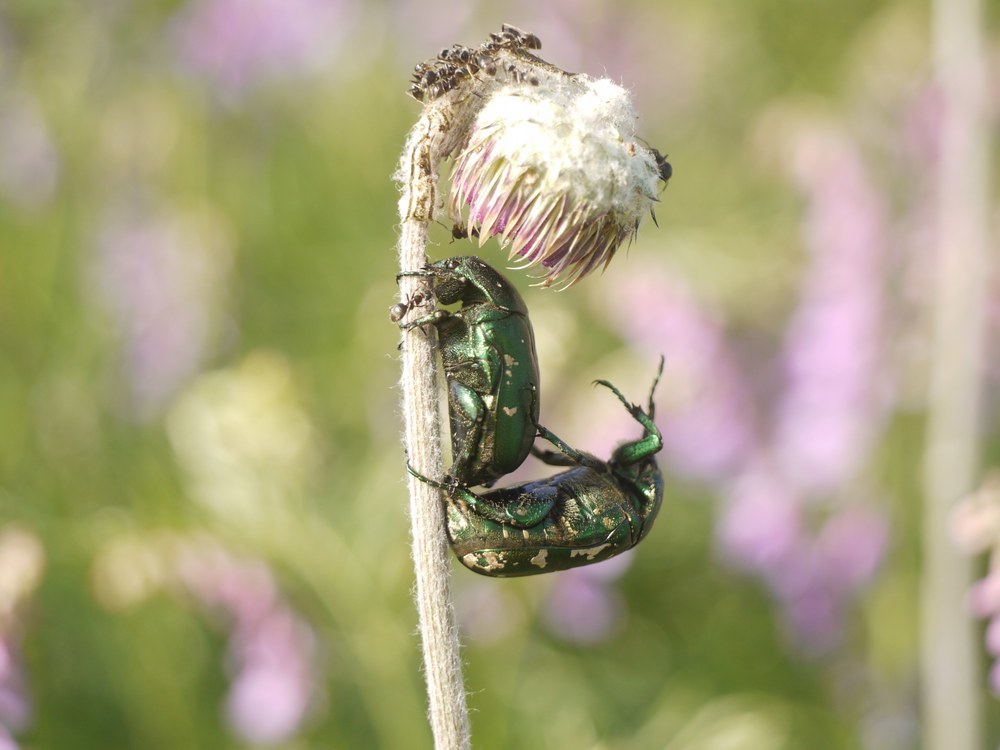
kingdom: Animalia
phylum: Arthropoda
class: Insecta
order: Coleoptera
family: Scarabaeidae
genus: Protaetia
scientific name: Protaetia ungarica
